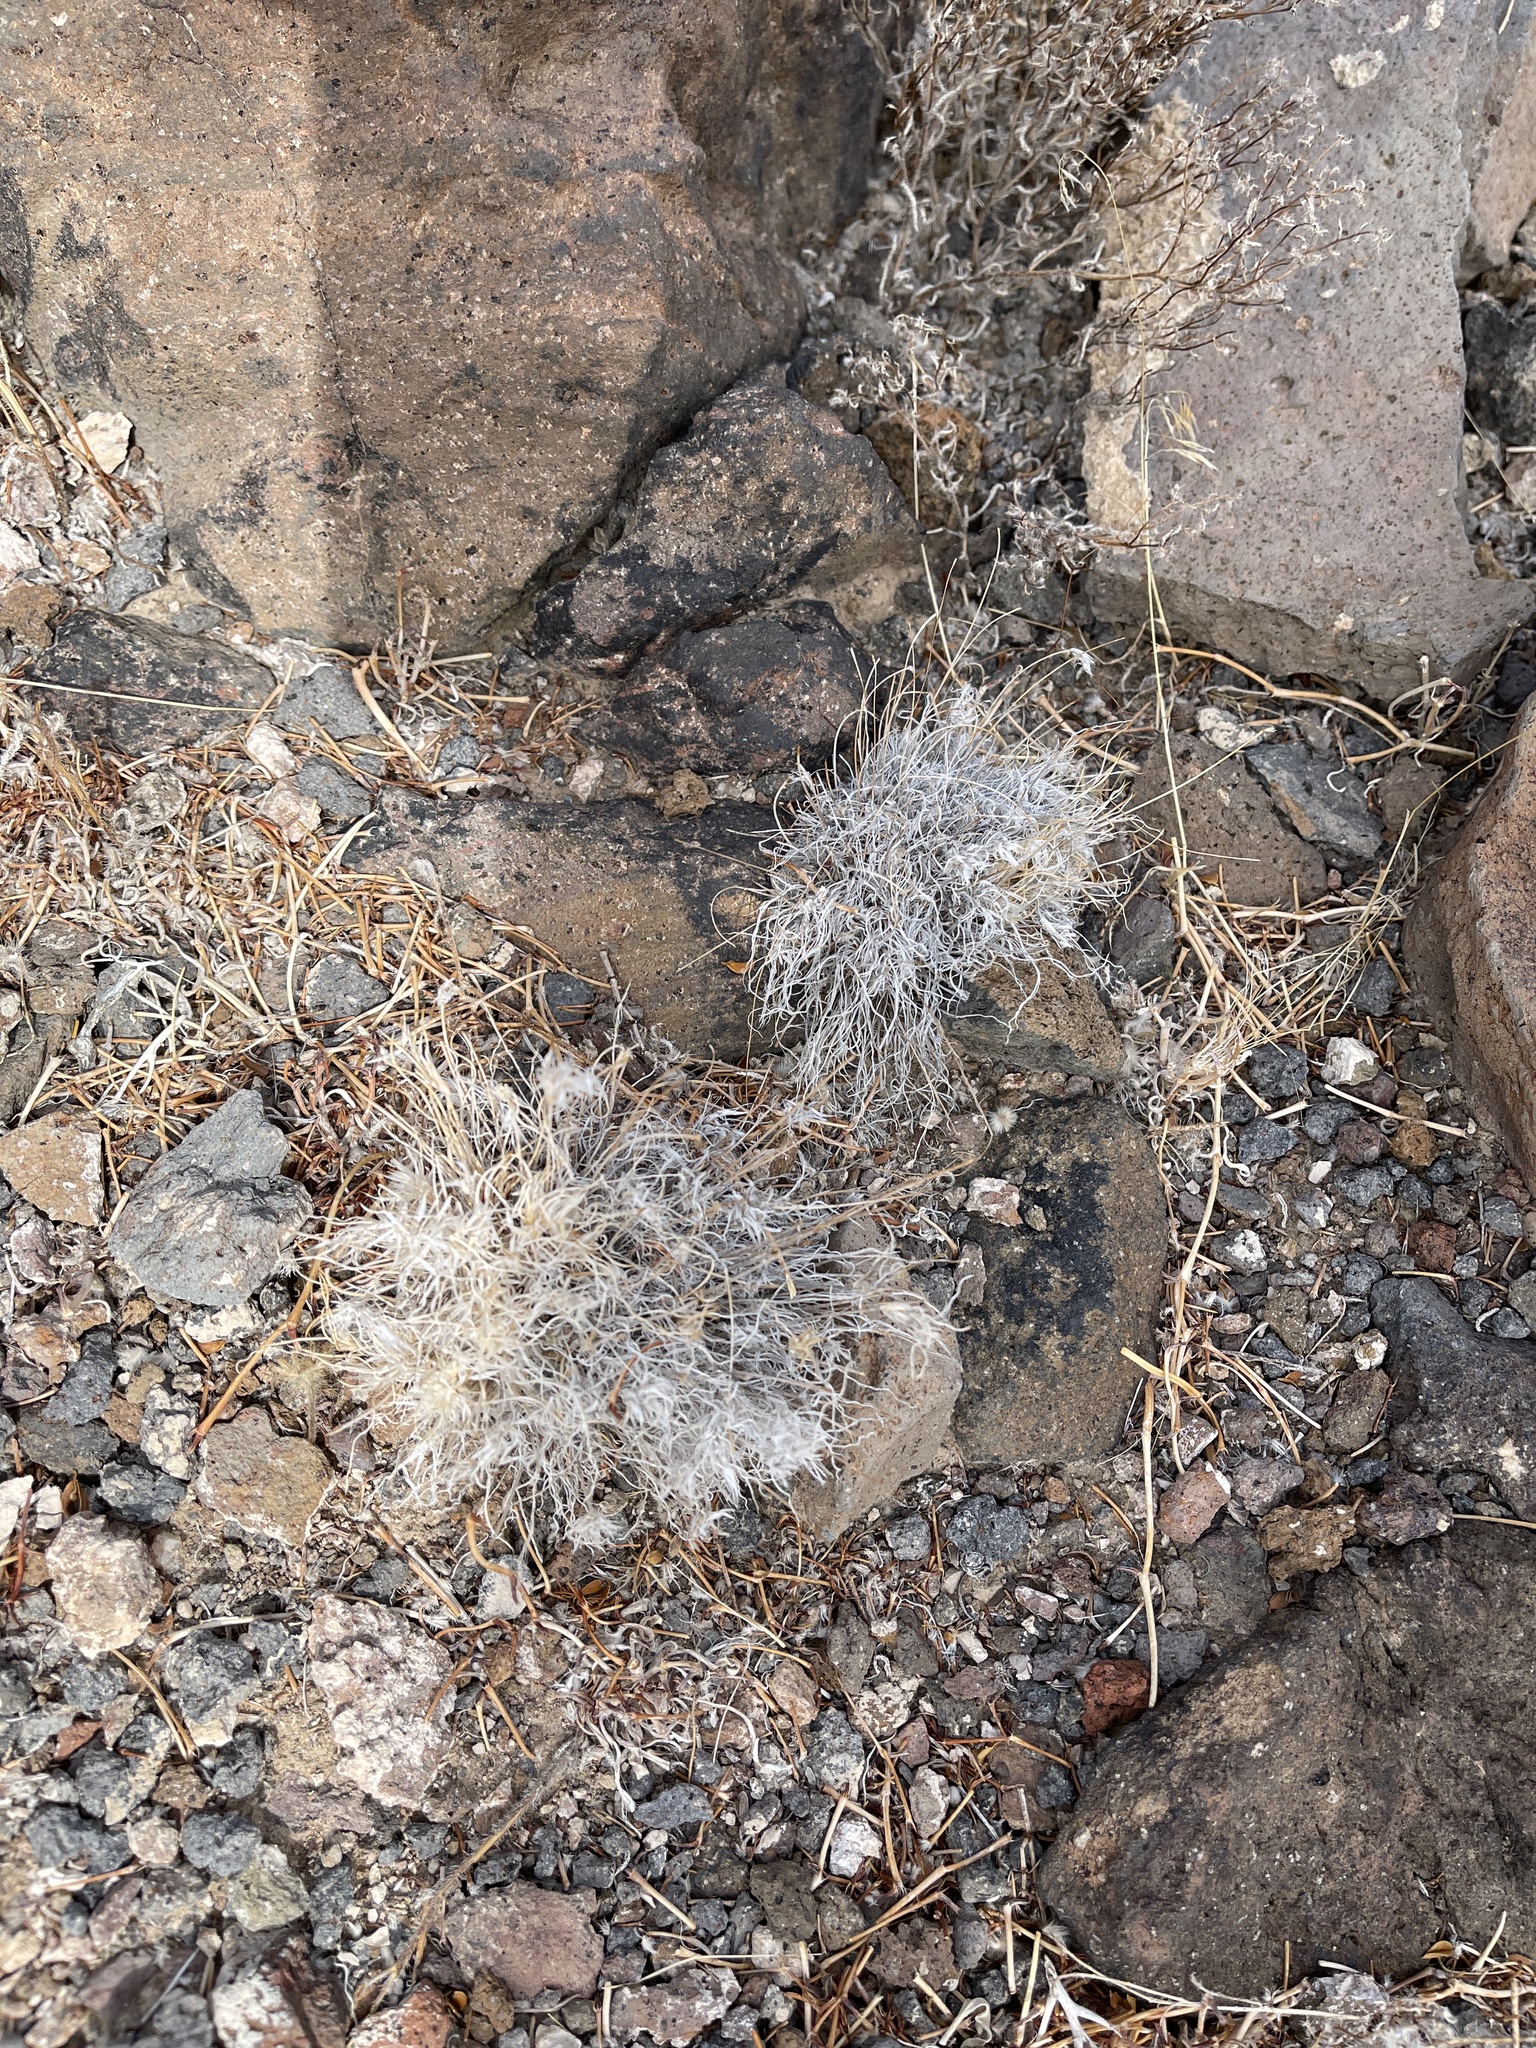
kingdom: Plantae
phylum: Tracheophyta
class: Liliopsida
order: Poales
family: Poaceae
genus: Dasyochloa
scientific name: Dasyochloa pulchella
